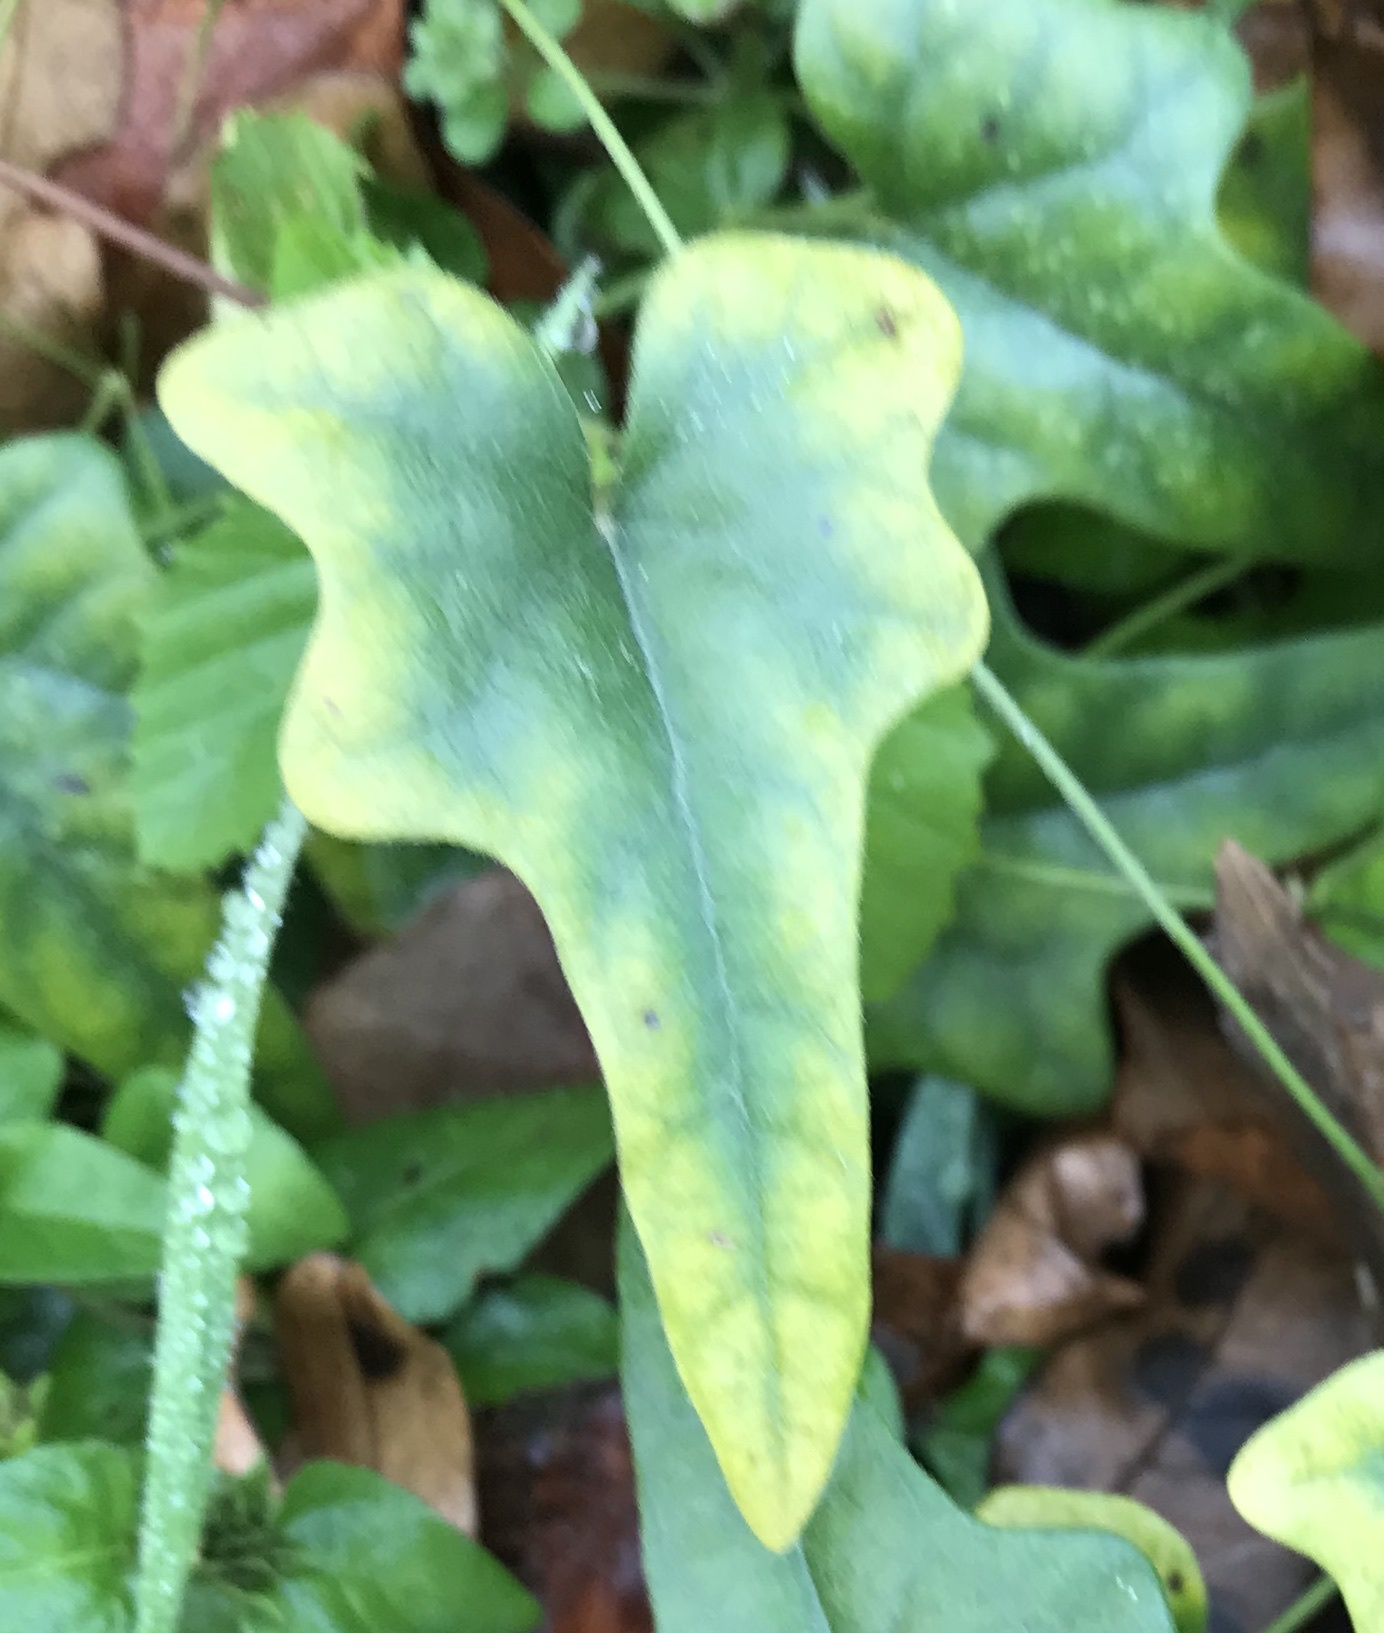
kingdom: Plantae
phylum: Tracheophyta
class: Magnoliopsida
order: Ranunculales
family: Menispermaceae
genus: Cocculus
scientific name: Cocculus carolinus
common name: Carolina moonseed
